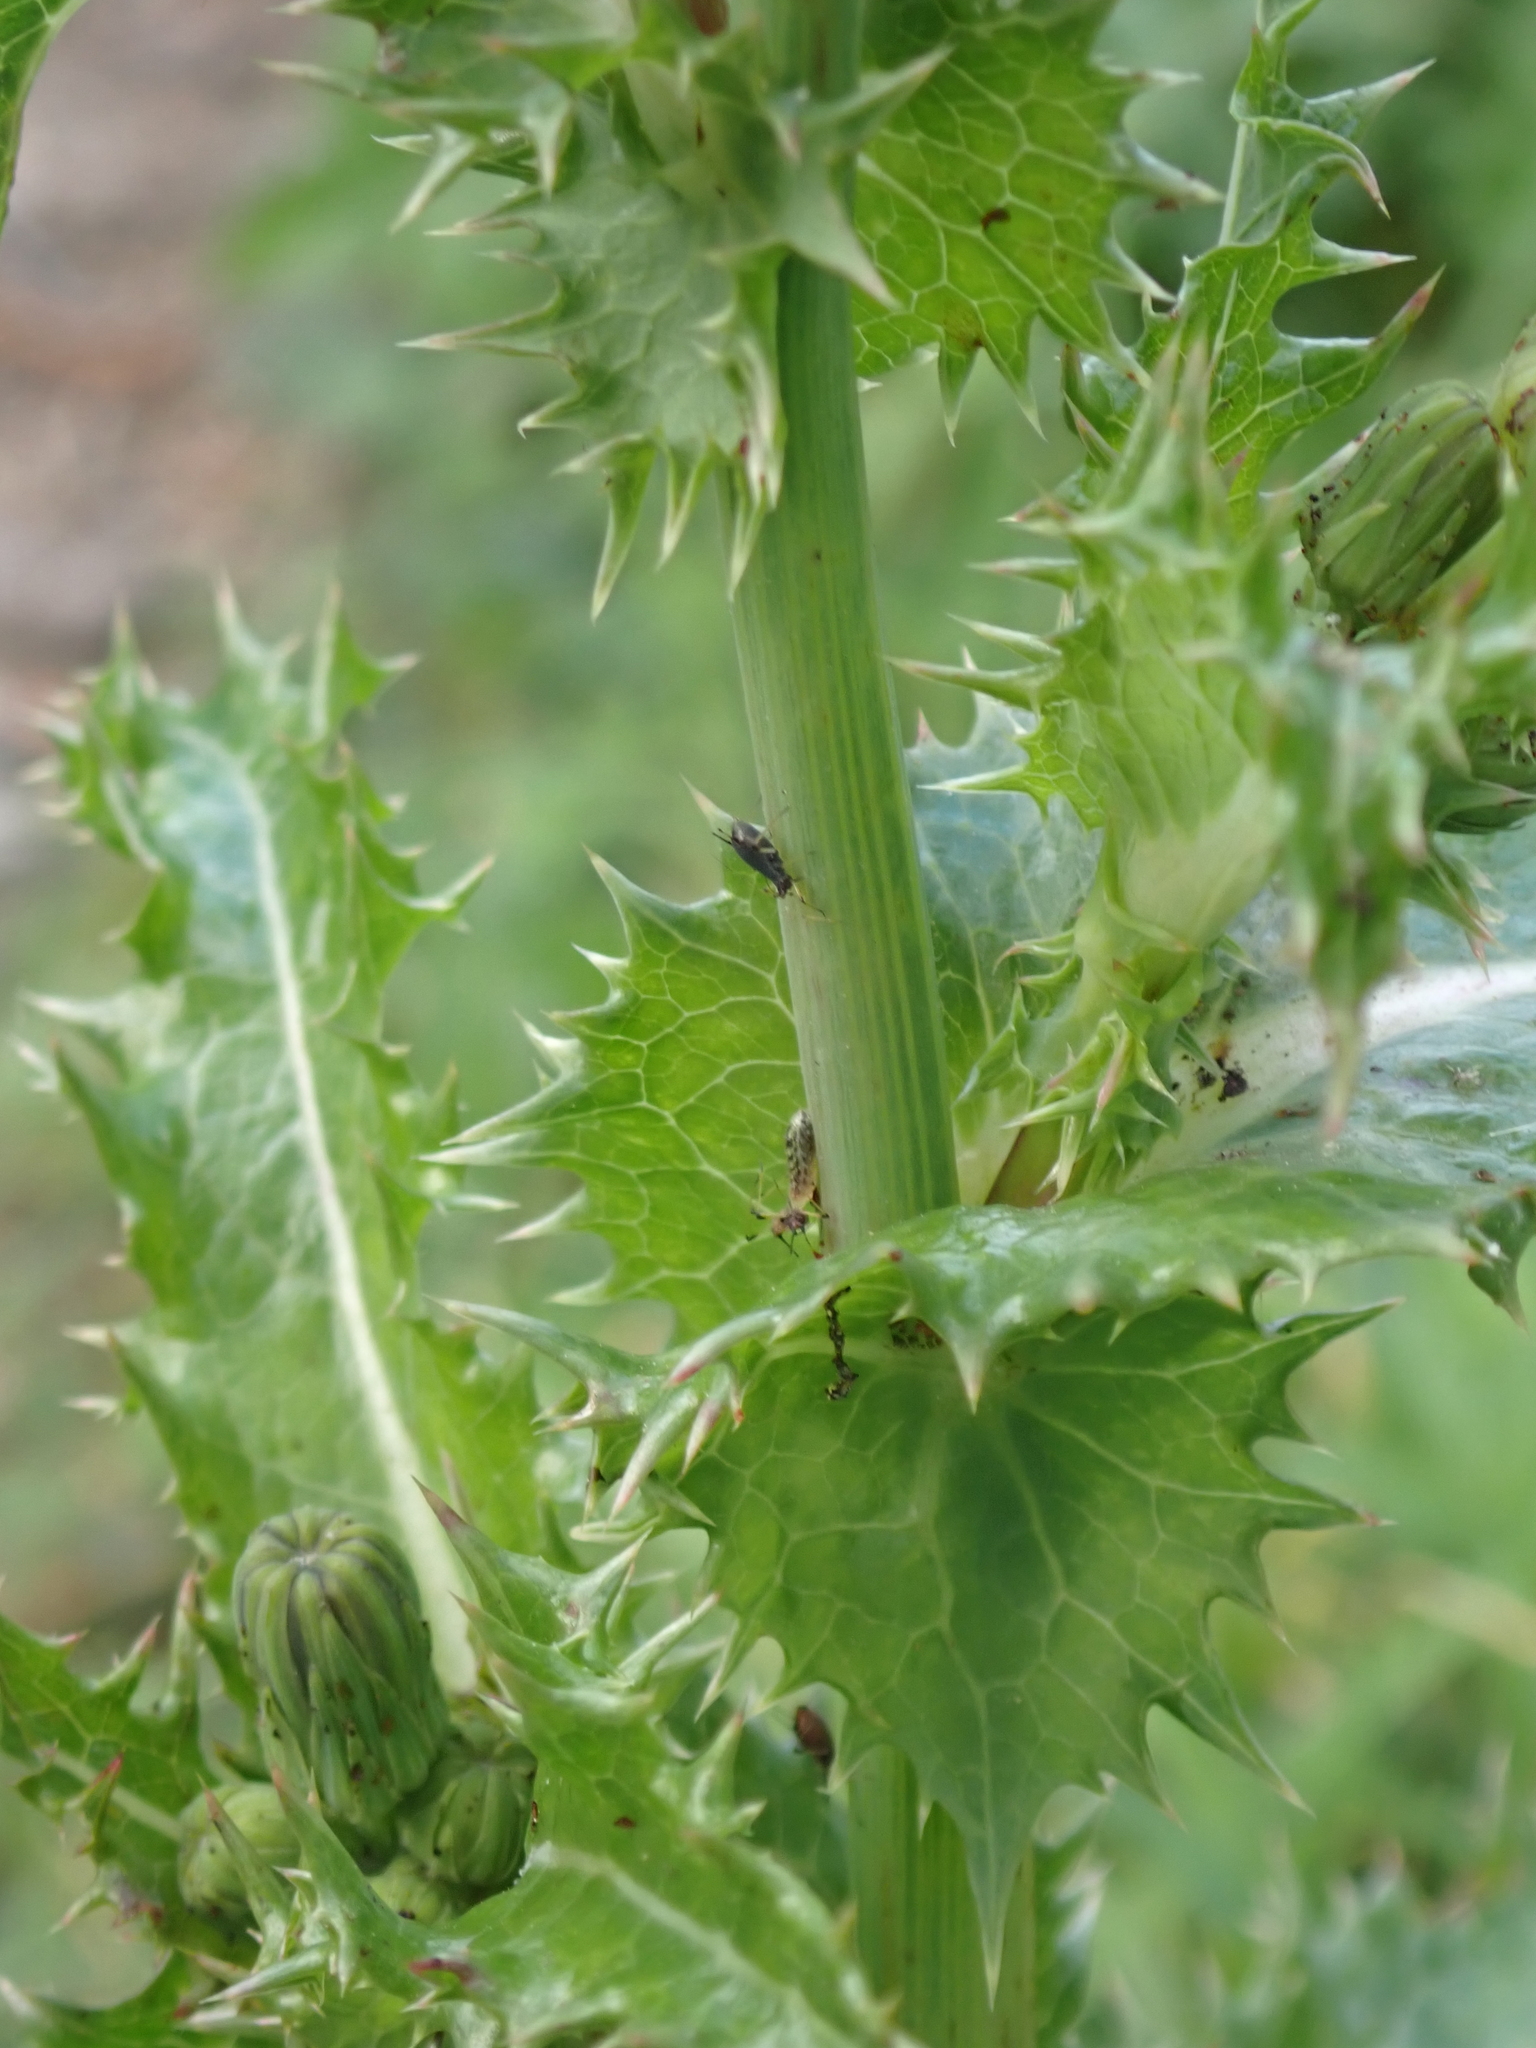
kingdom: Plantae
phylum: Tracheophyta
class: Magnoliopsida
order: Asterales
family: Asteraceae
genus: Sonchus
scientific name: Sonchus asper
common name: Prickly sow-thistle
